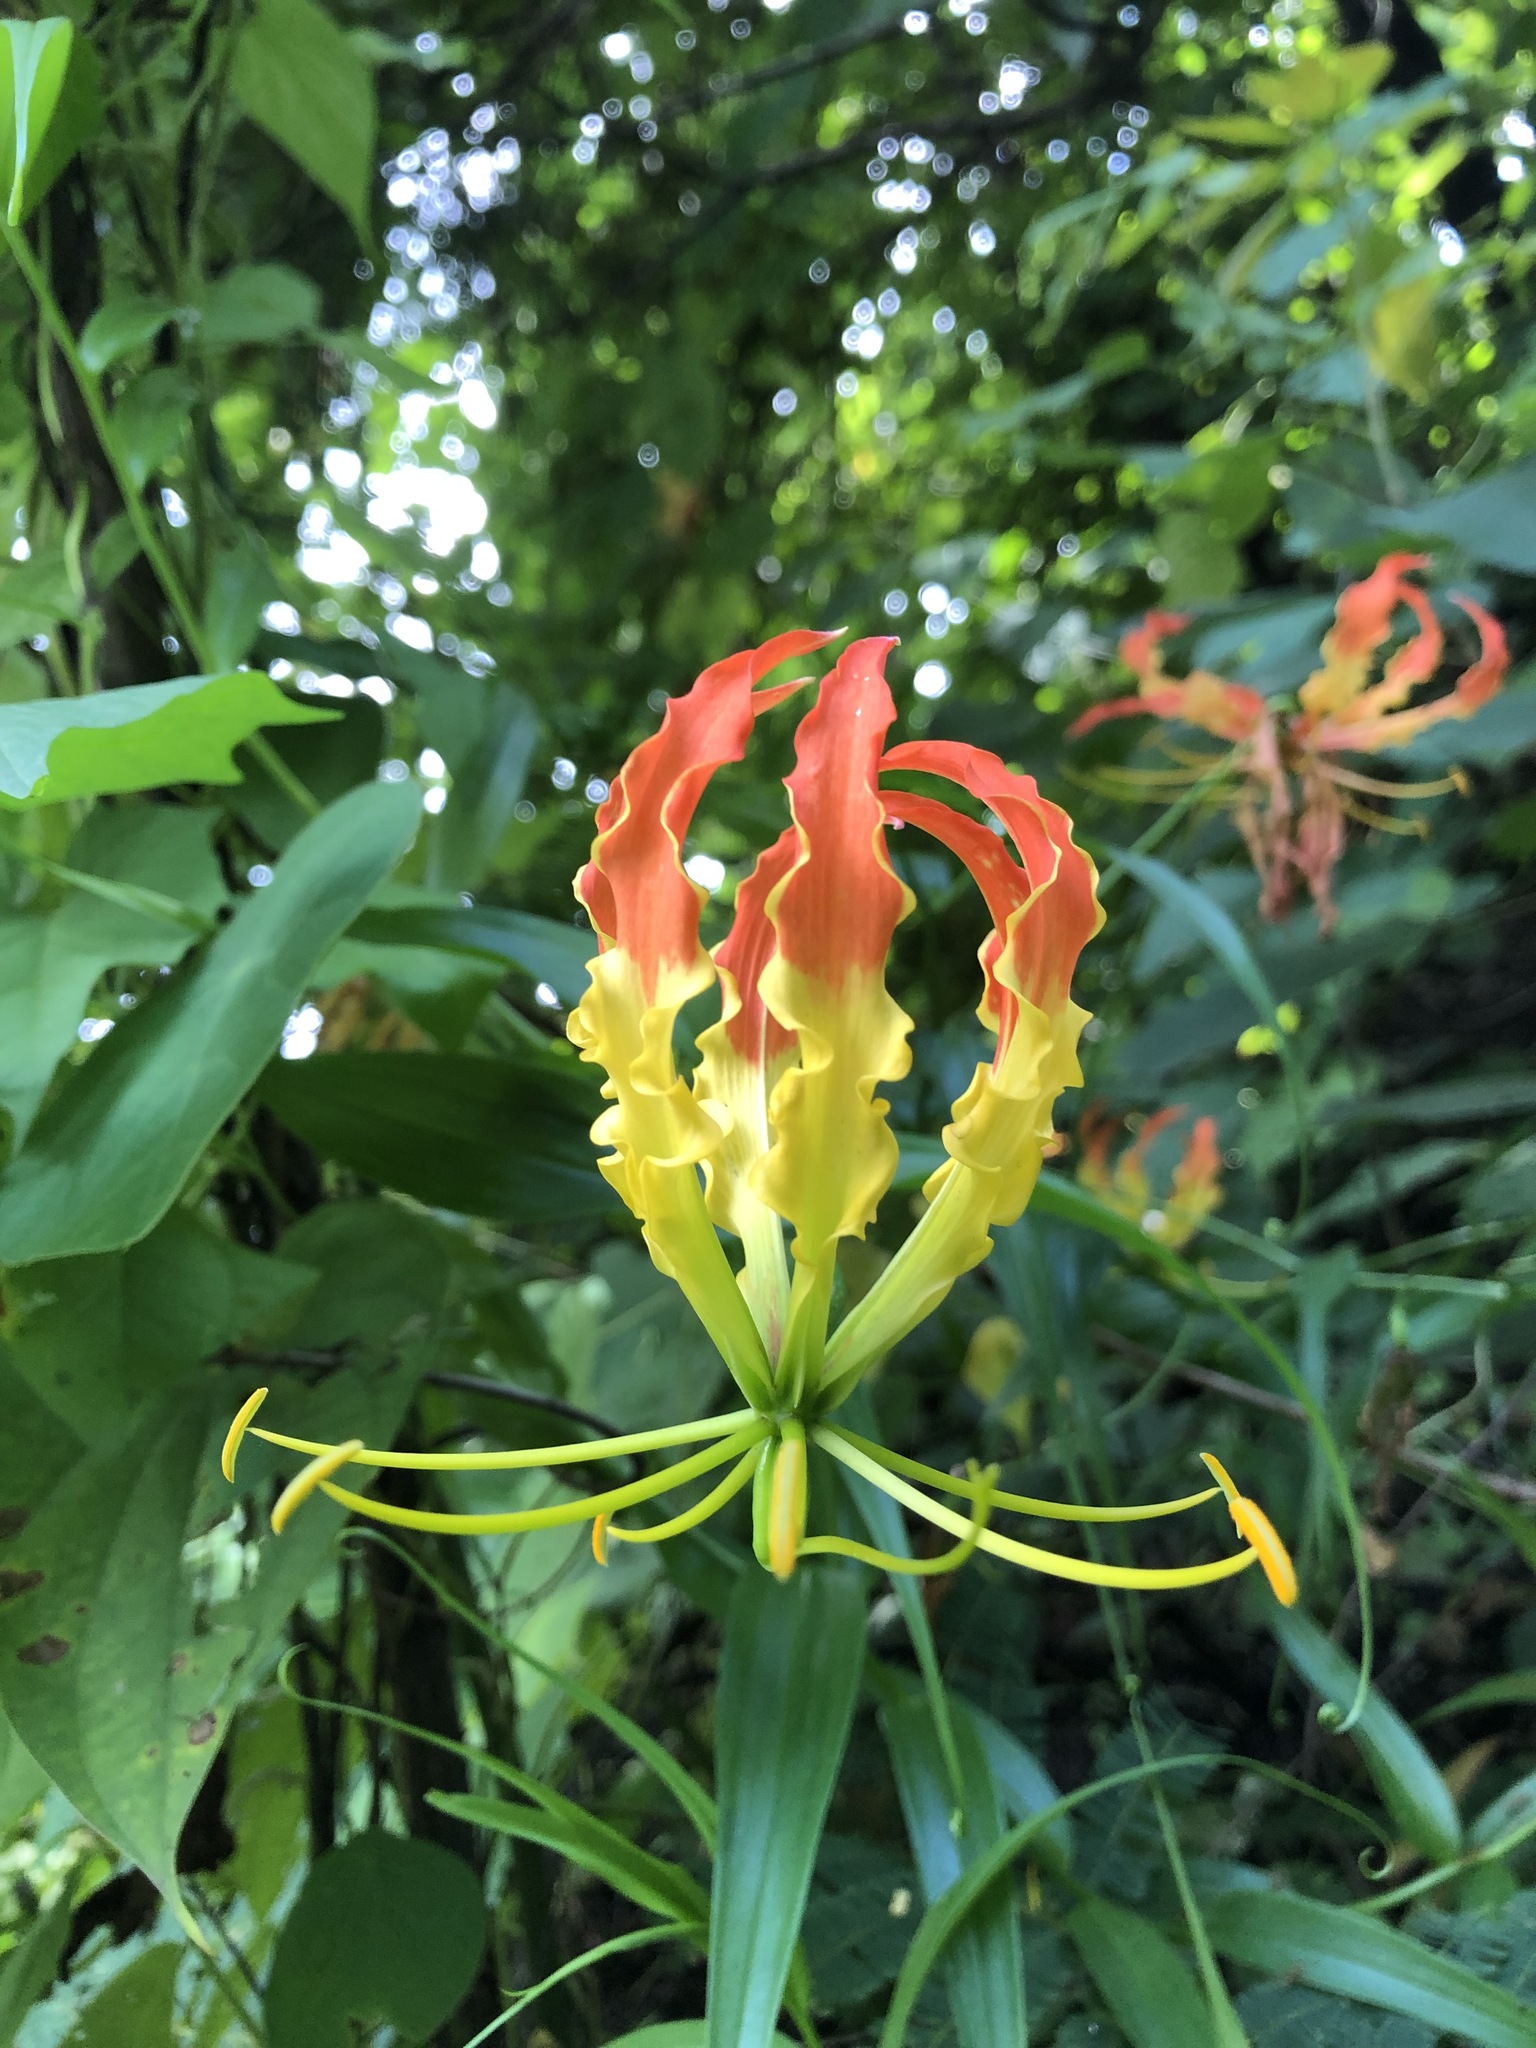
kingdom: Plantae
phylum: Tracheophyta
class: Liliopsida
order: Liliales
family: Colchicaceae
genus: Gloriosa
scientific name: Gloriosa superba
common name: Flame lily
